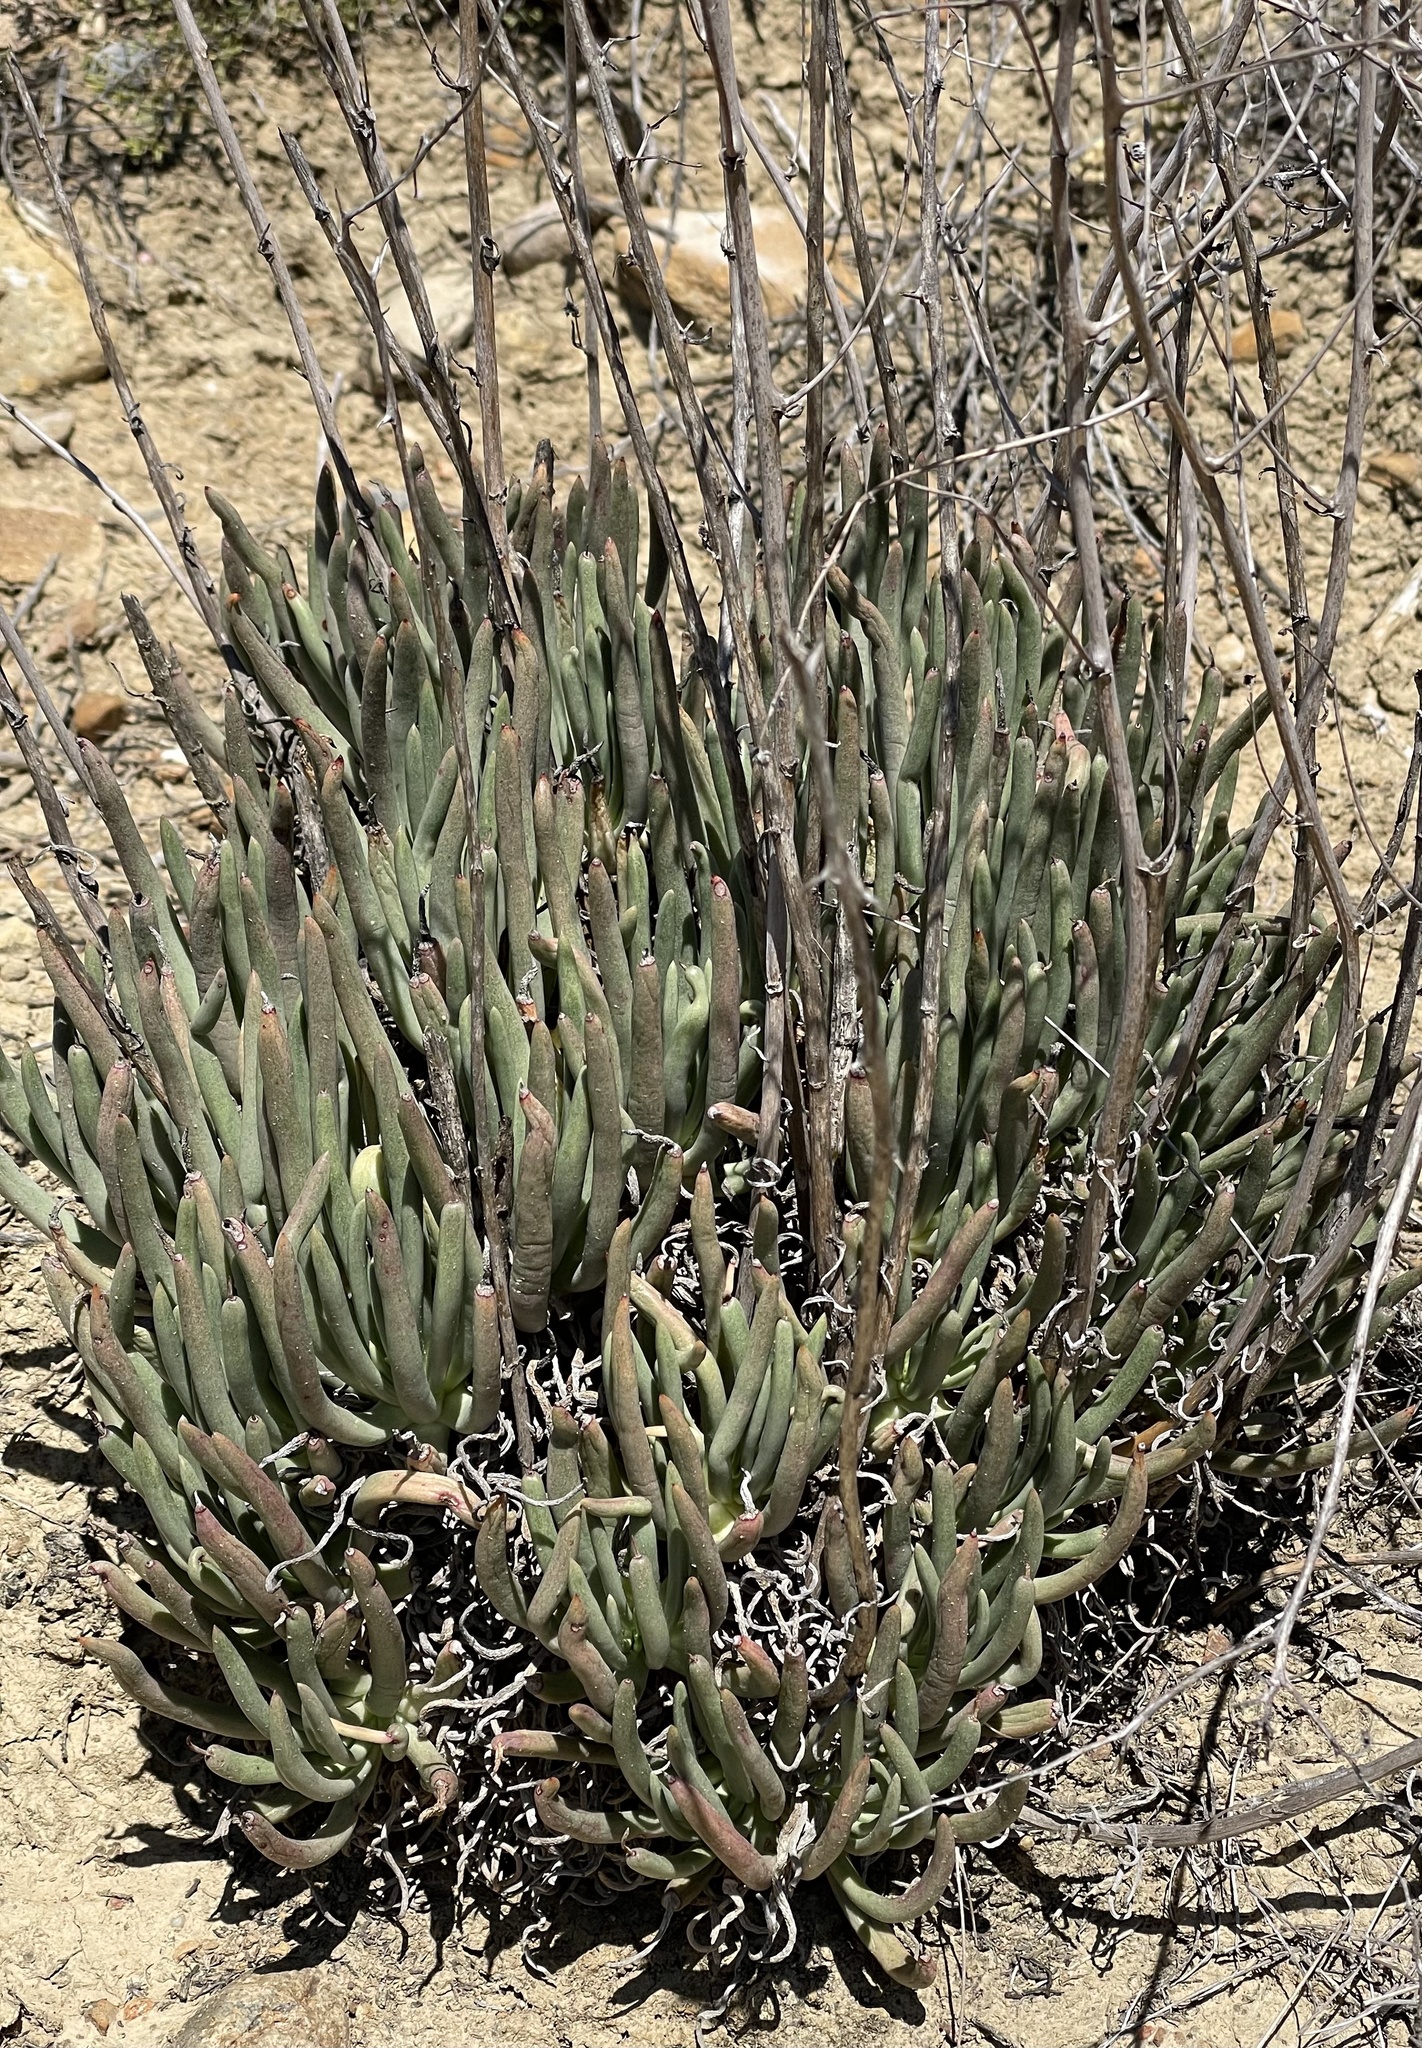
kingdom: Plantae
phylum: Tracheophyta
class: Magnoliopsida
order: Saxifragales
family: Crassulaceae
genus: Dudleya
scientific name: Dudleya edulis
